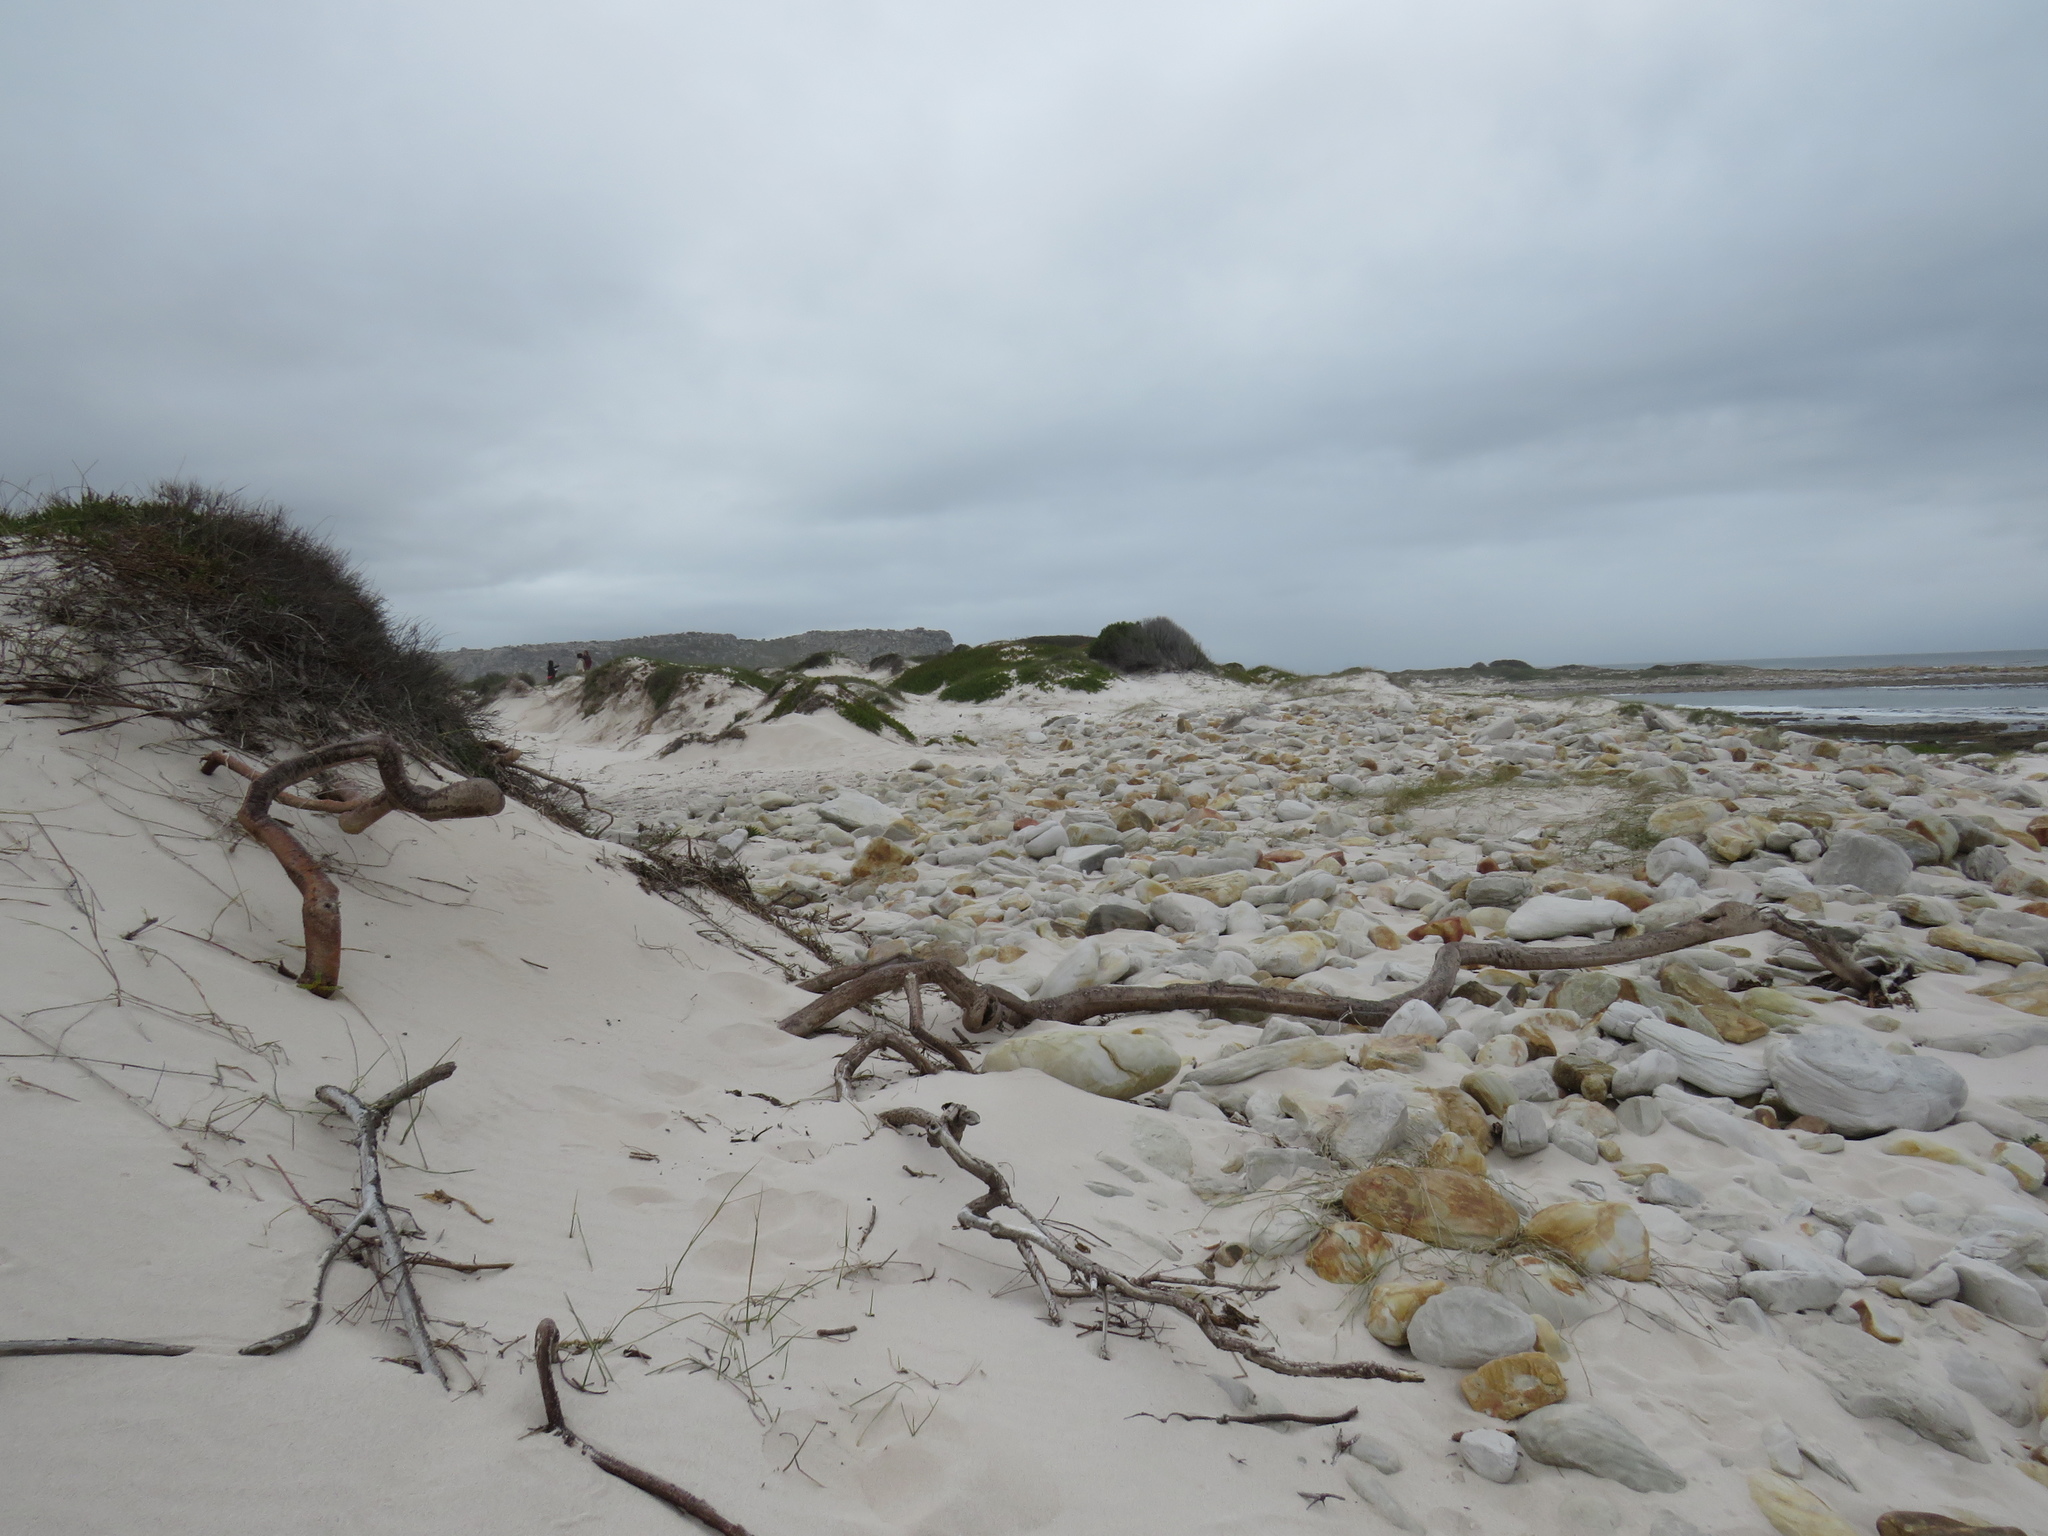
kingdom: Plantae
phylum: Tracheophyta
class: Magnoliopsida
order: Fagales
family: Myricaceae
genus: Morella
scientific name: Morella cordifolia
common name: Waxberry
